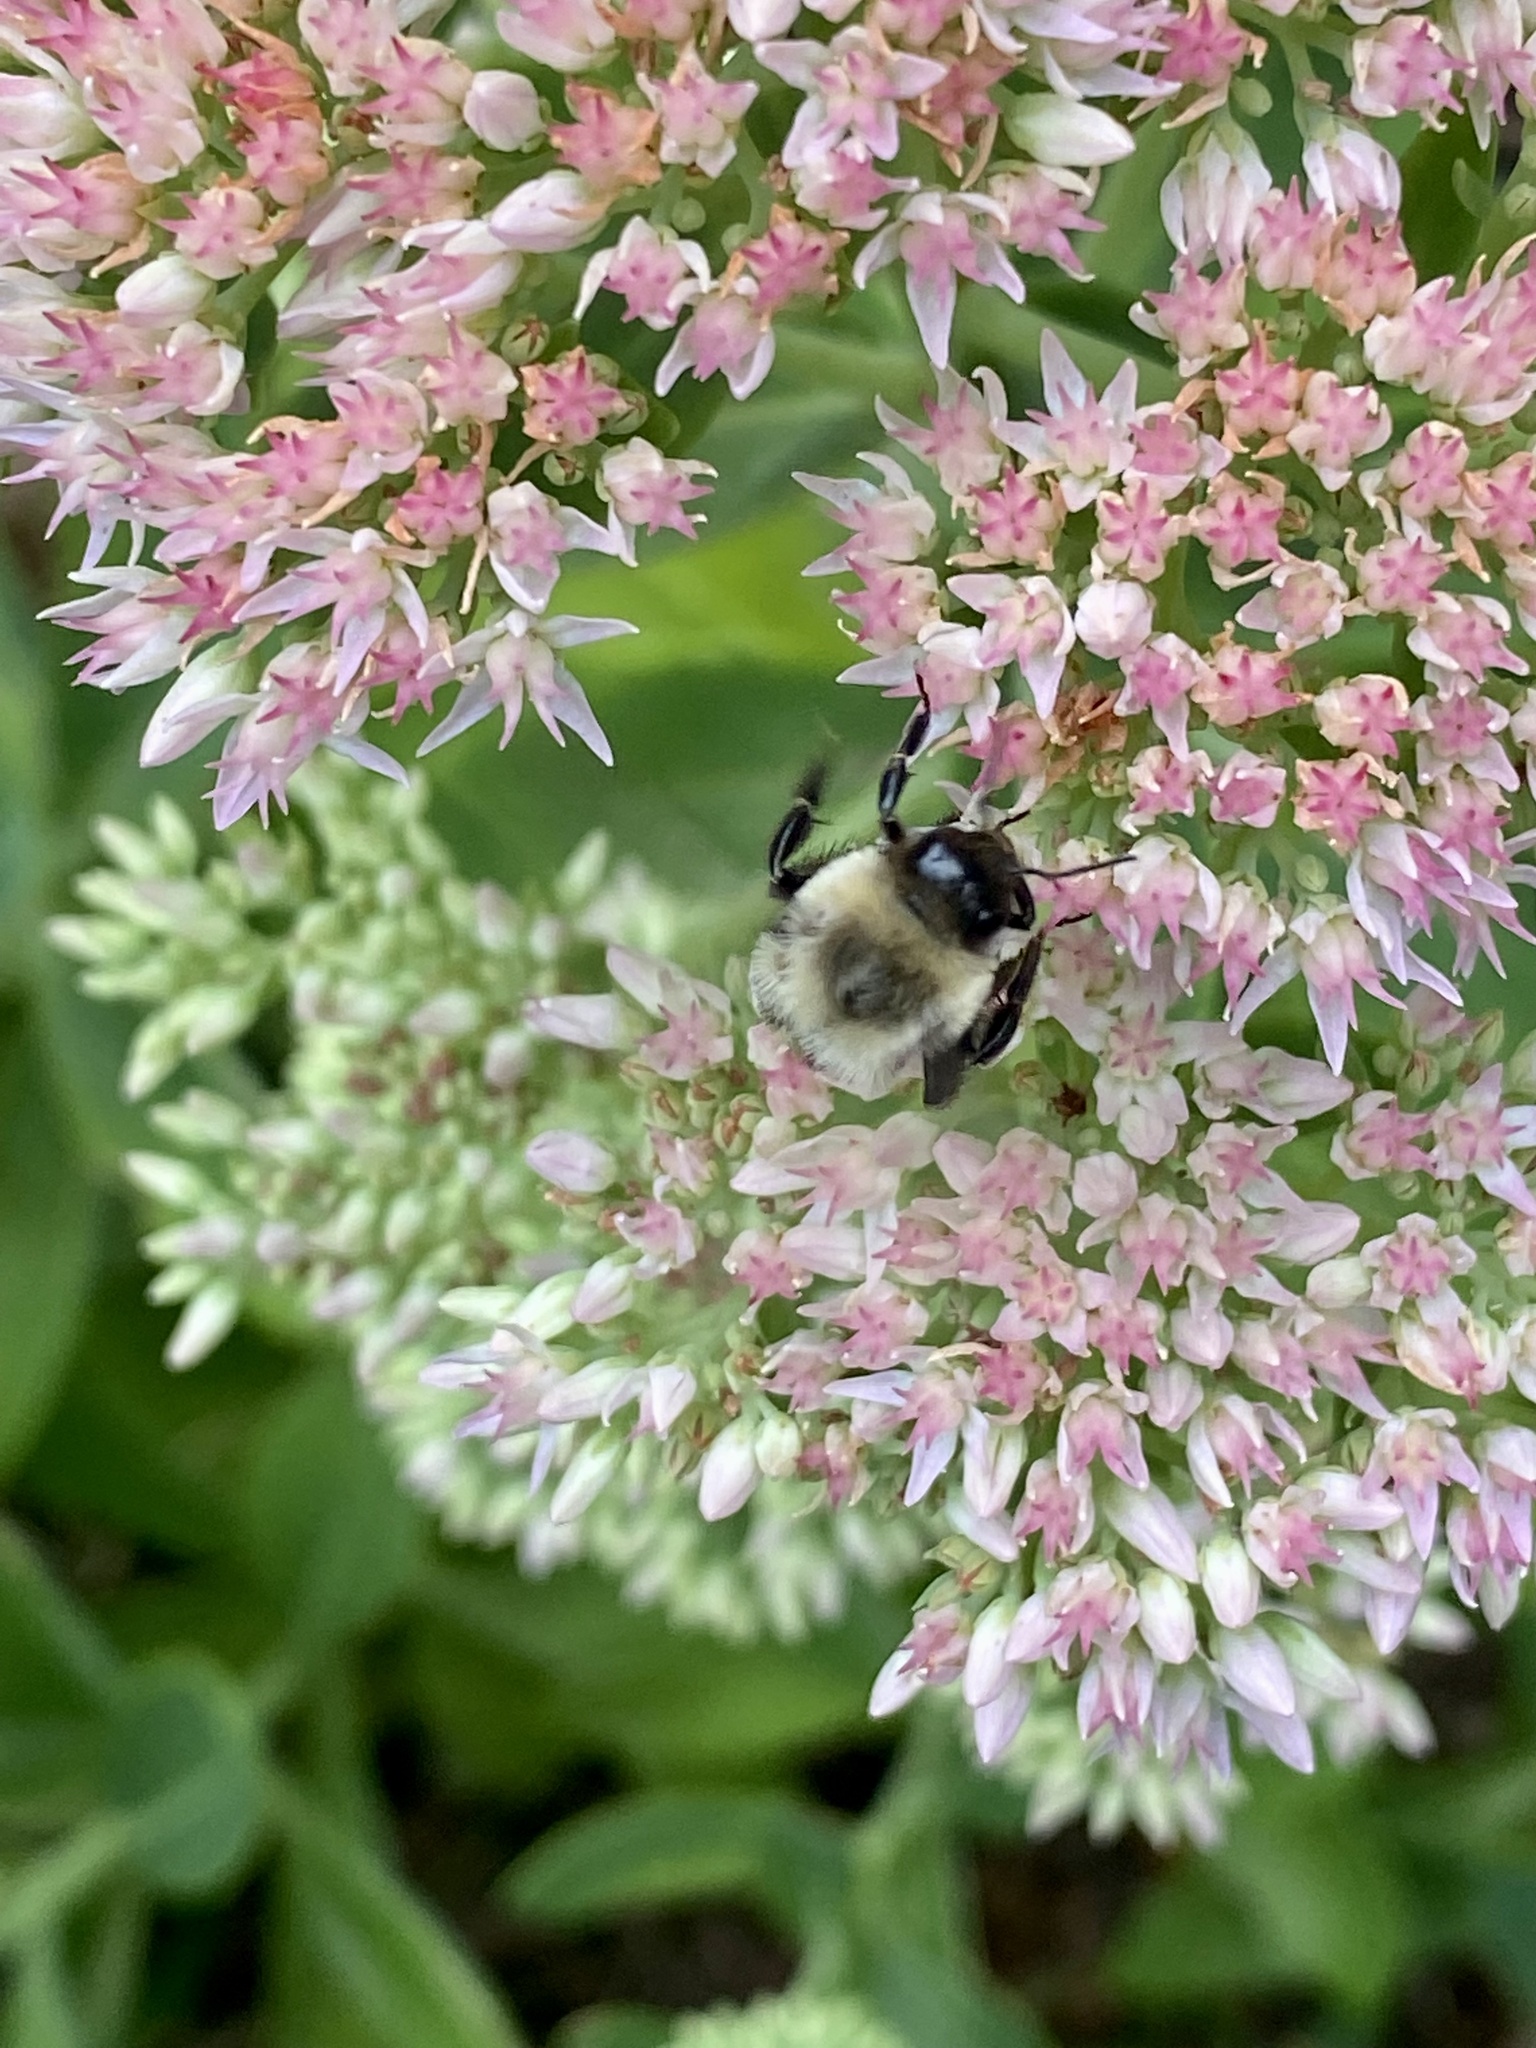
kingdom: Animalia
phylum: Arthropoda
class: Insecta
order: Hymenoptera
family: Apidae
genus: Bombus
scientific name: Bombus impatiens
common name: Common eastern bumble bee
